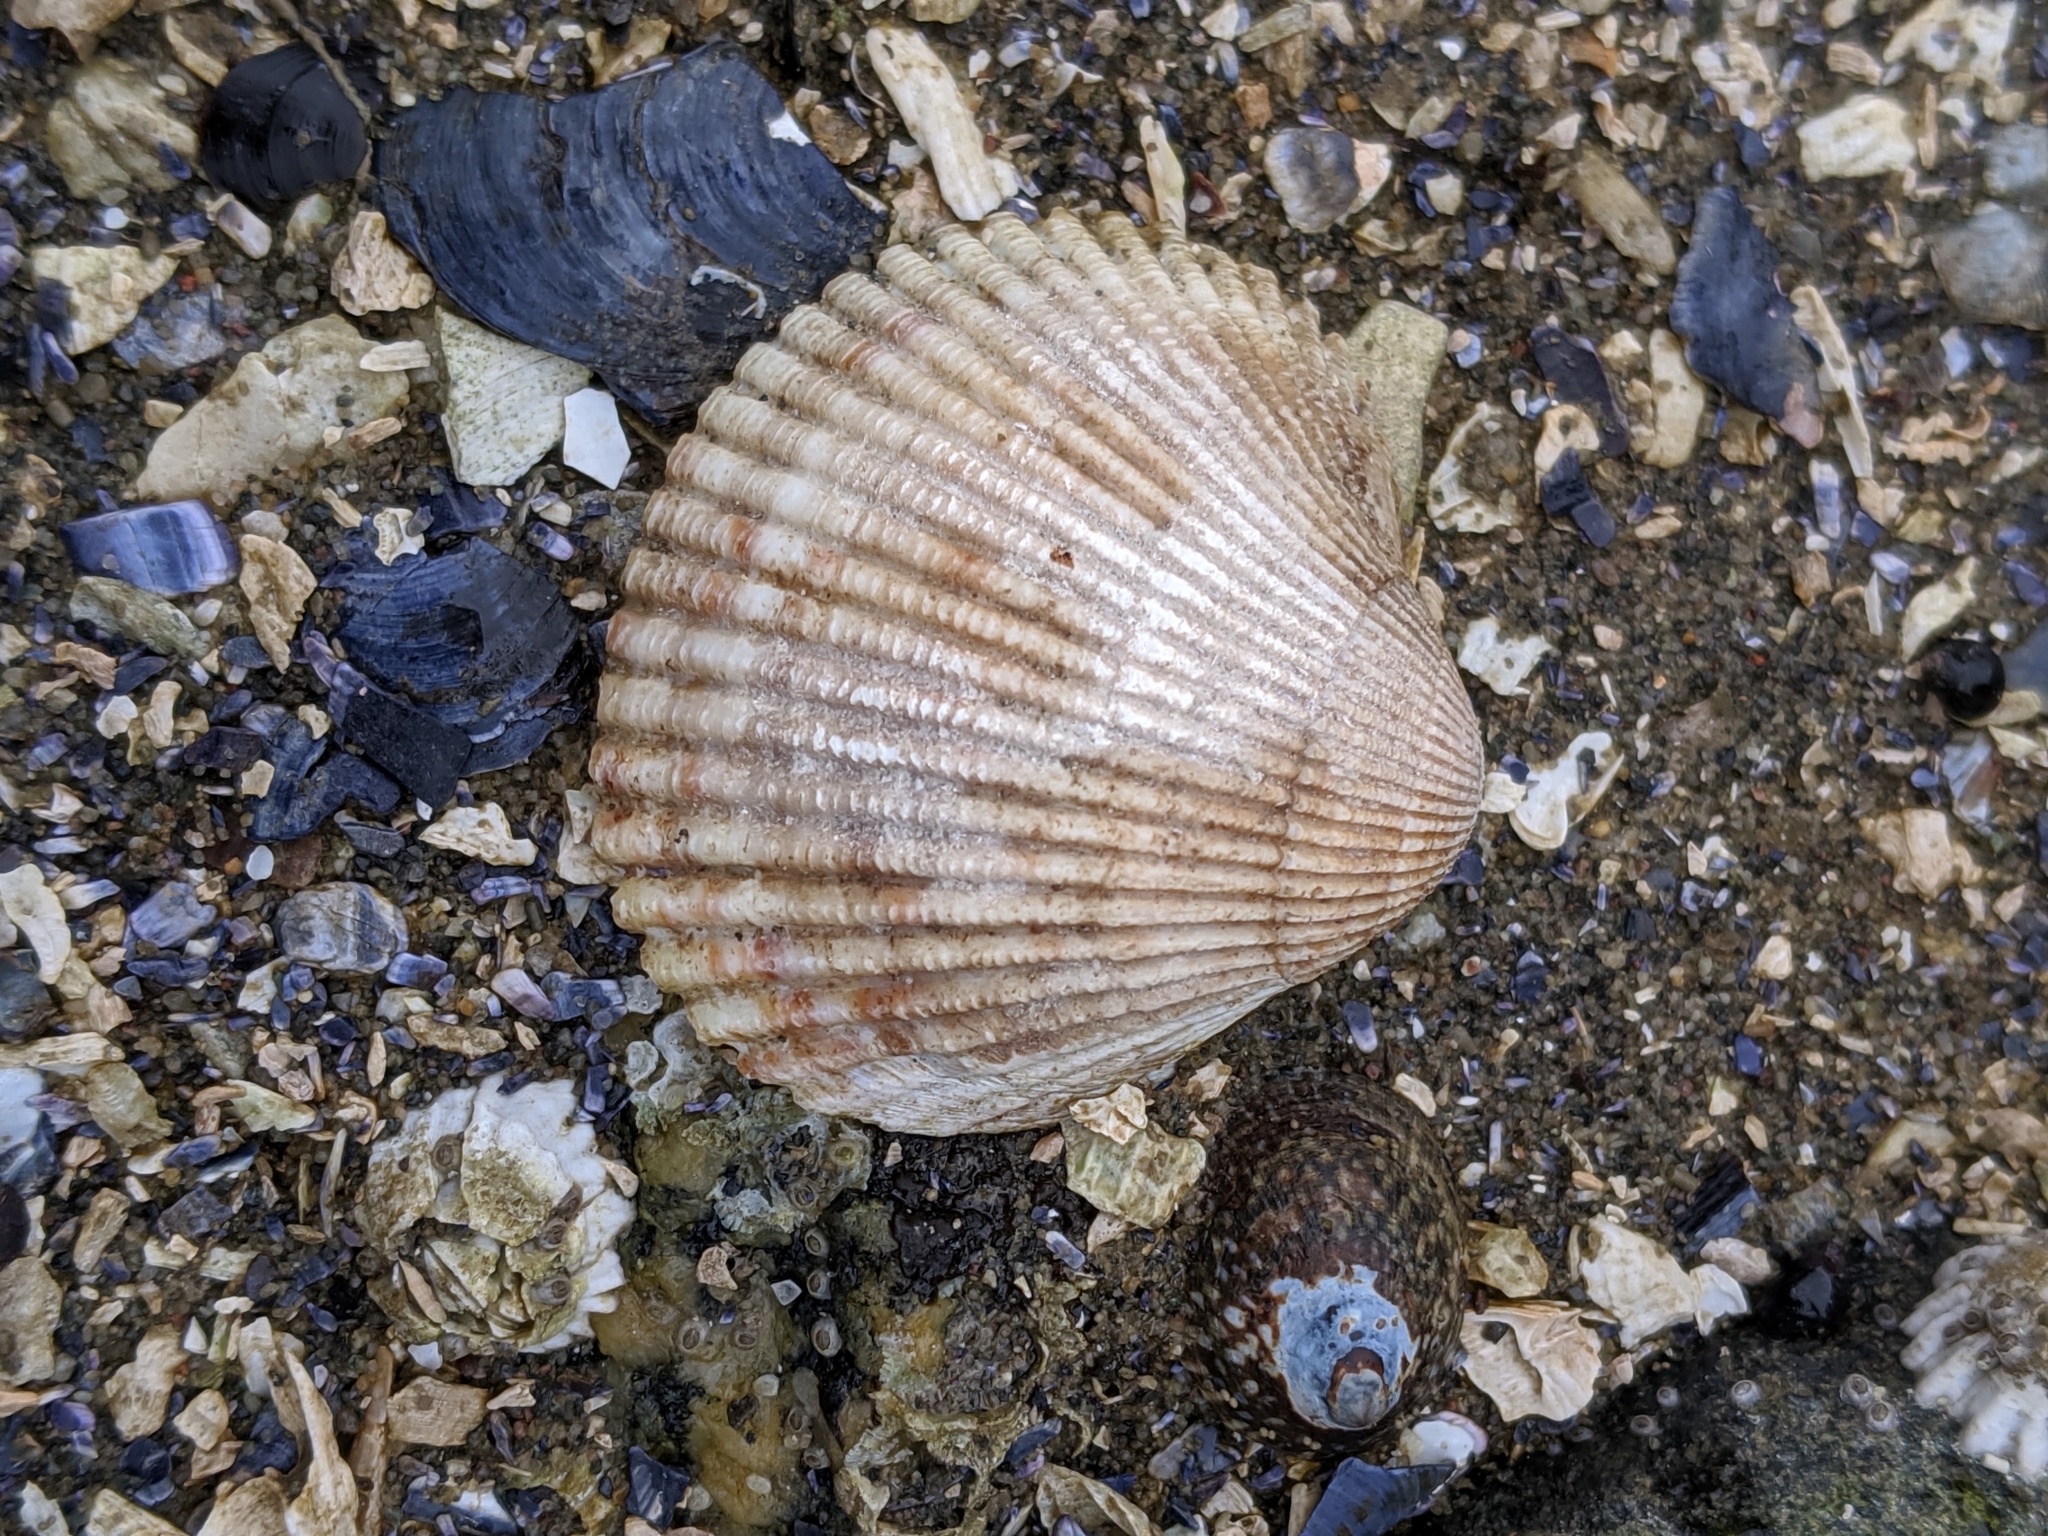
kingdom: Animalia
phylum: Mollusca
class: Bivalvia
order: Cardiida
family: Cardiidae
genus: Clinocardium
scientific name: Clinocardium nuttallii
